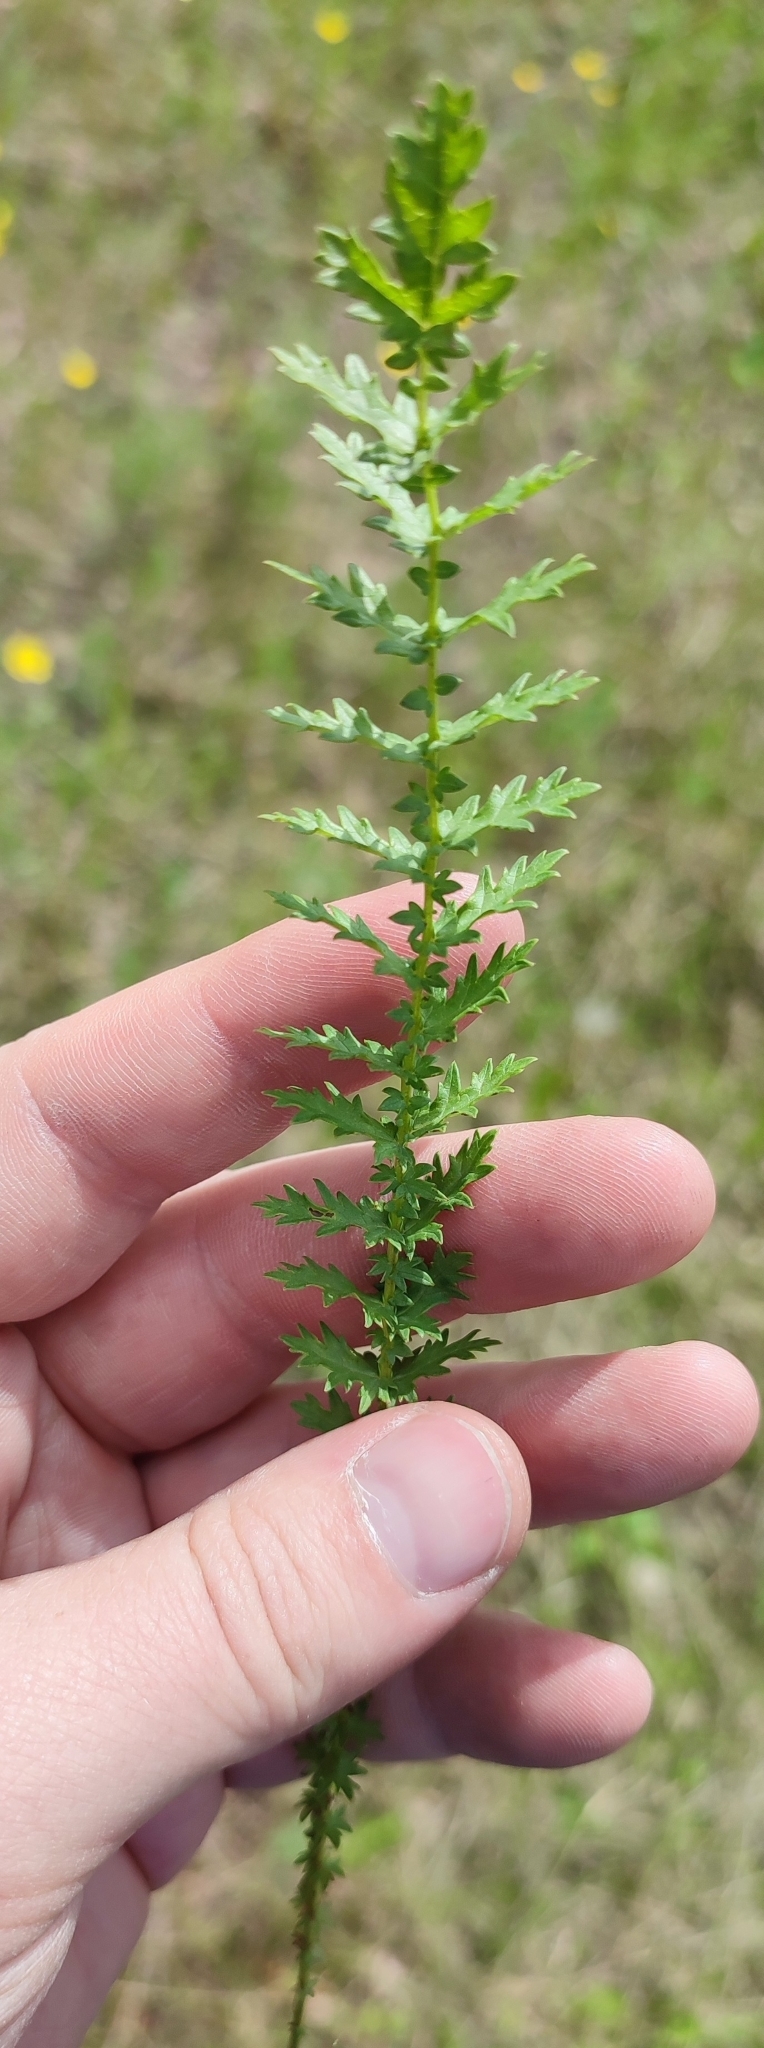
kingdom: Plantae
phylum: Tracheophyta
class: Magnoliopsida
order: Rosales
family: Rosaceae
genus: Filipendula
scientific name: Filipendula vulgaris
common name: Dropwort
